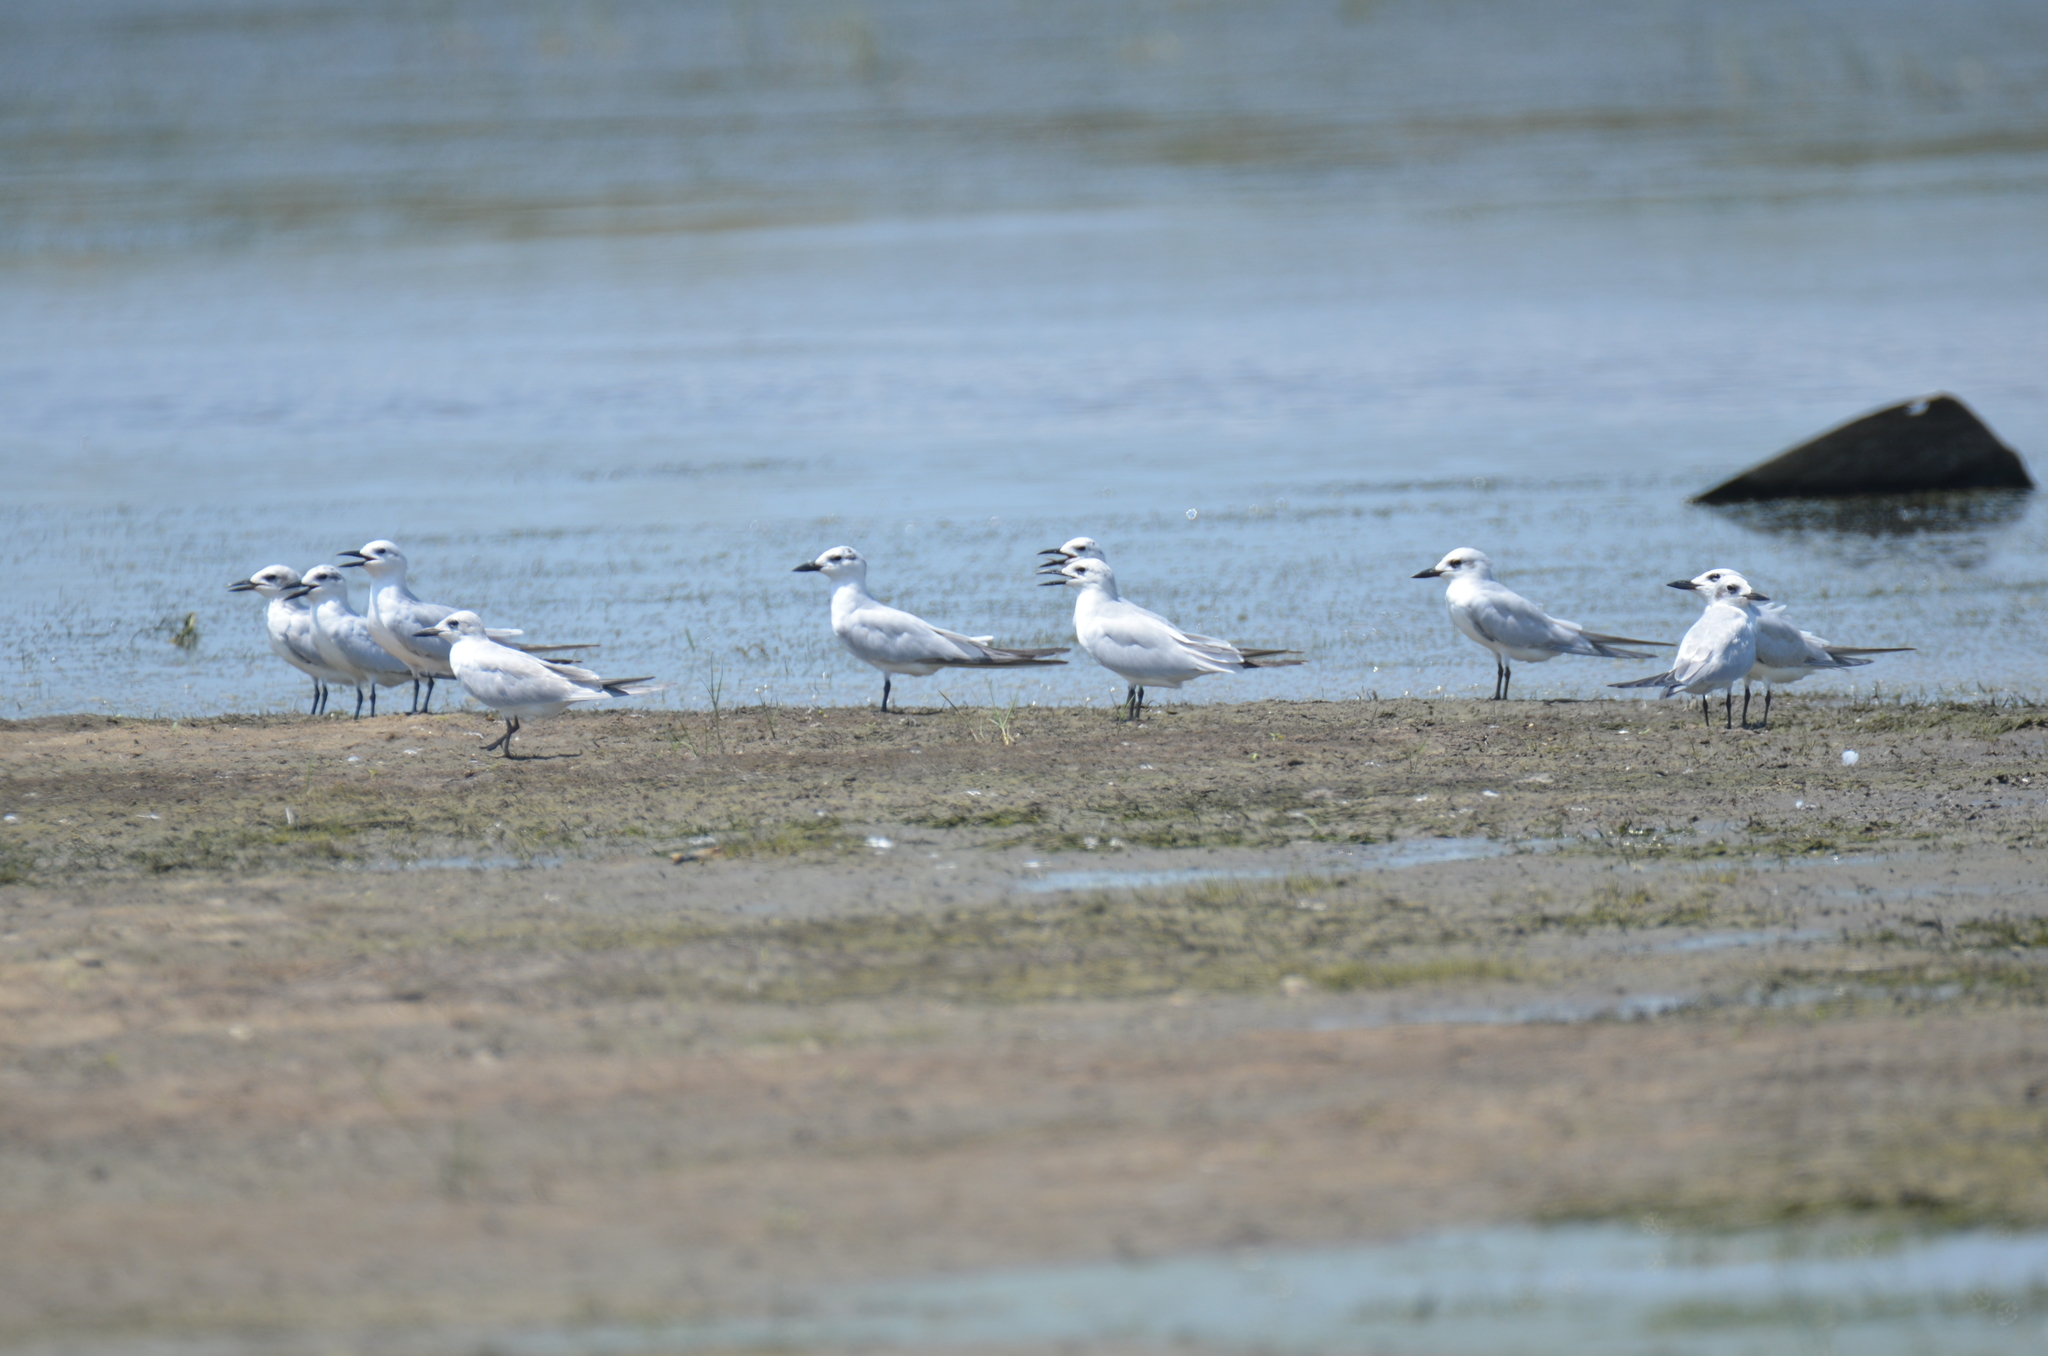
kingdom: Animalia
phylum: Chordata
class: Aves
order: Charadriiformes
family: Laridae
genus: Gelochelidon
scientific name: Gelochelidon nilotica
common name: Gull-billed tern
